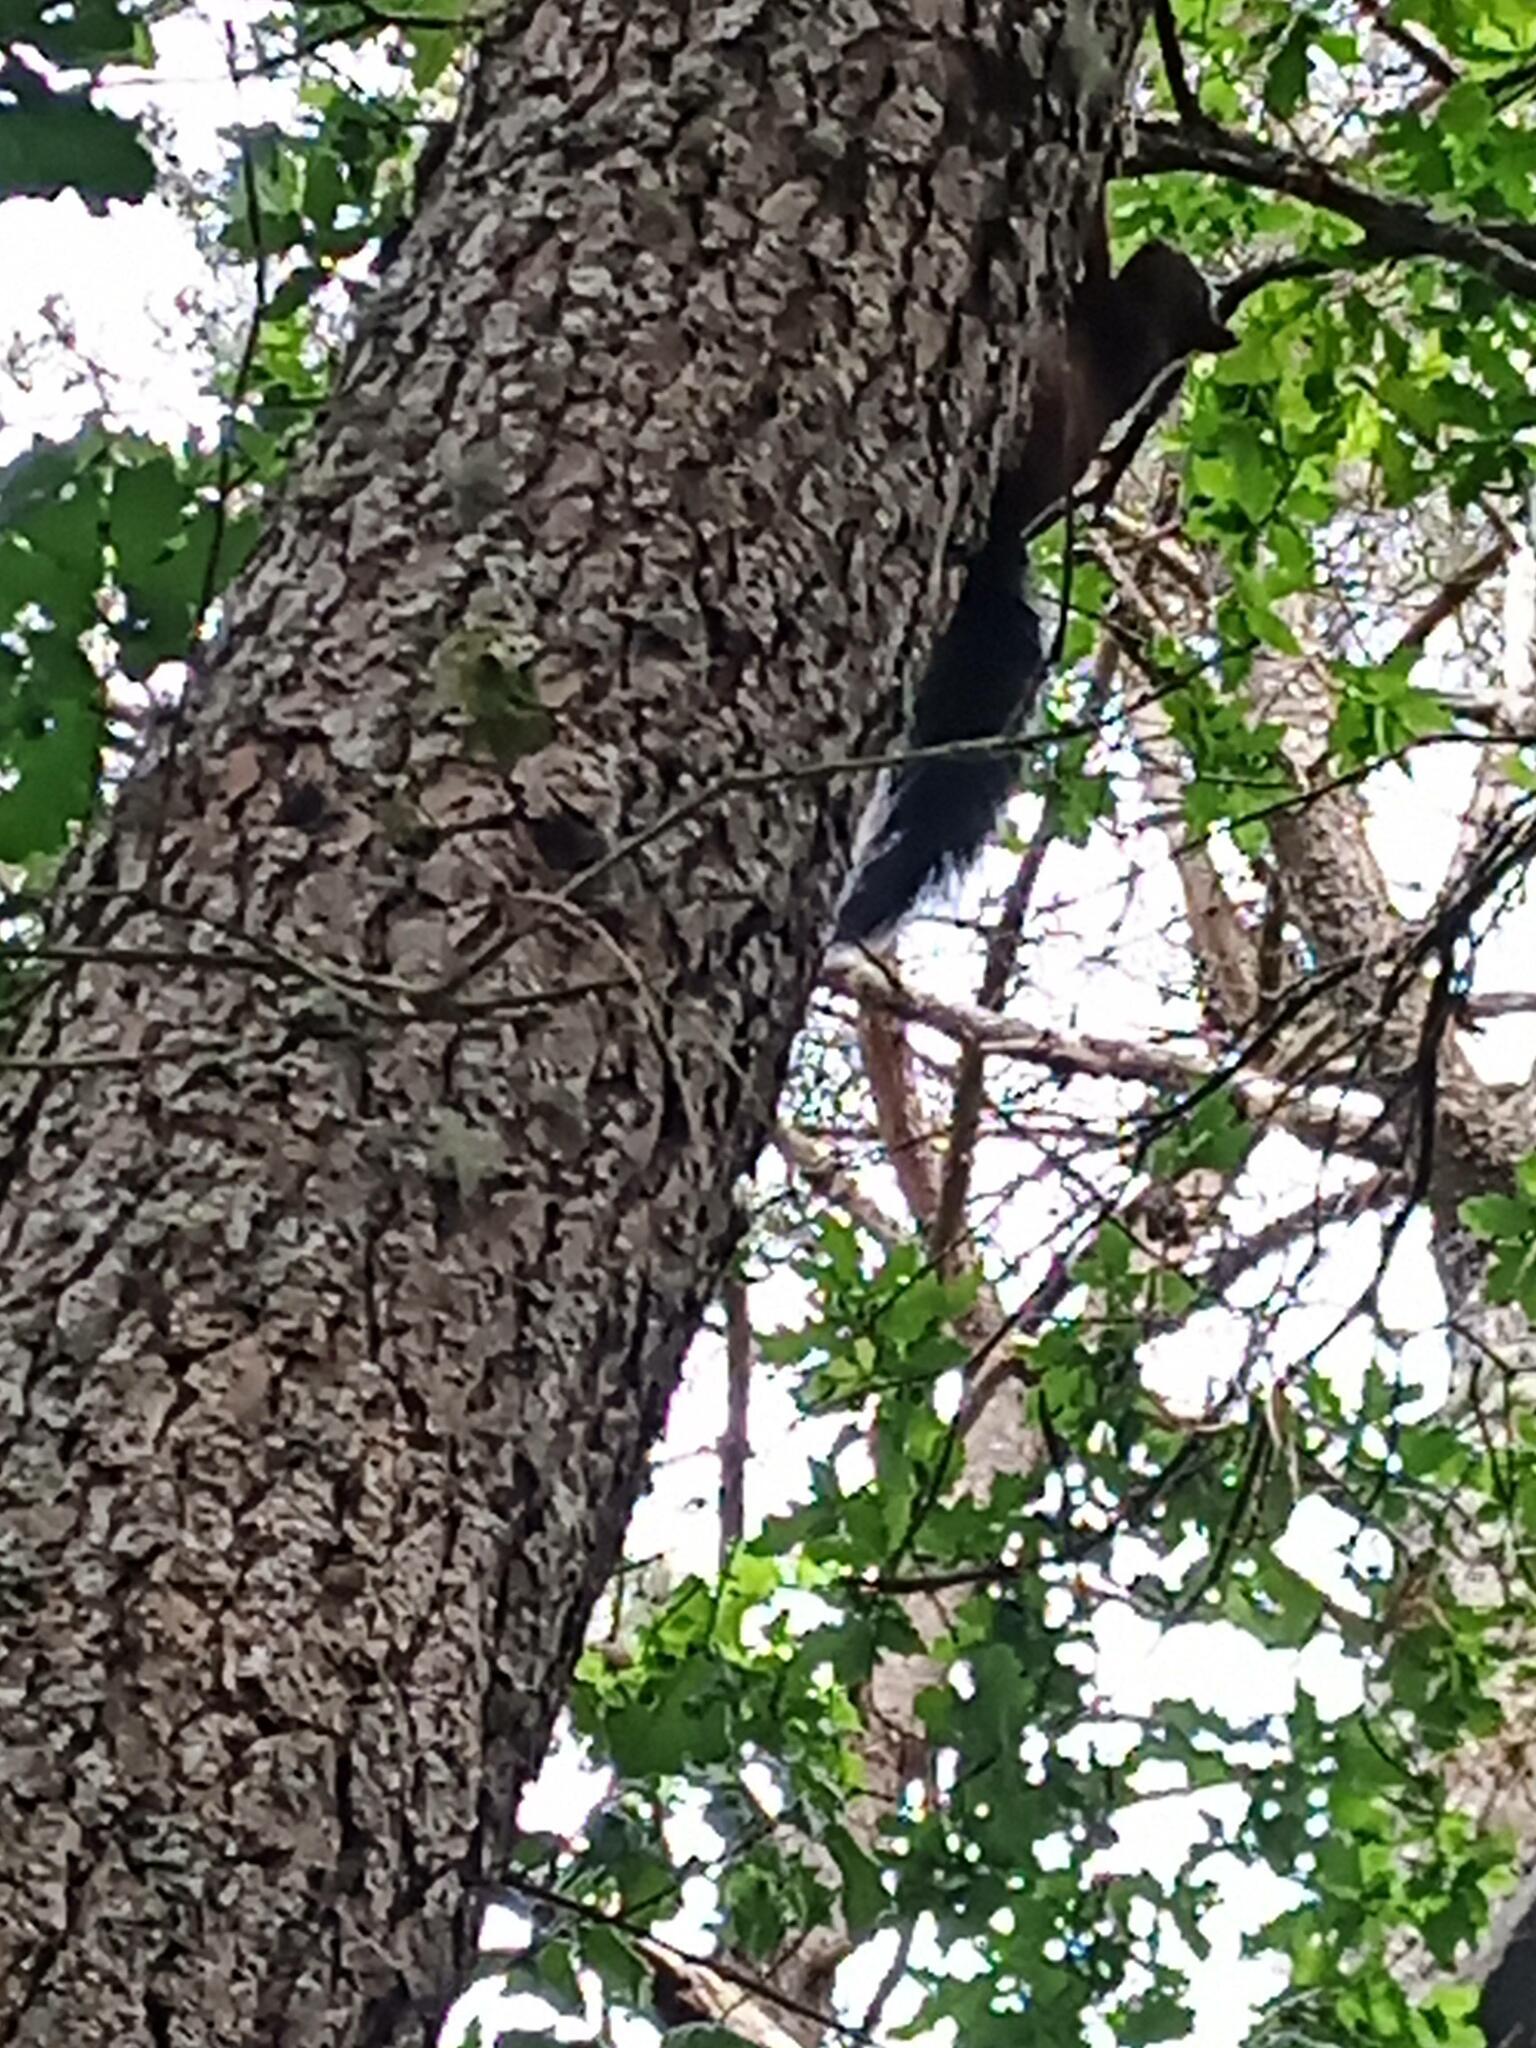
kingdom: Animalia
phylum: Chordata
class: Mammalia
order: Rodentia
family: Sciuridae
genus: Sciurus
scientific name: Sciurus vulgaris
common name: Eurasian red squirrel
